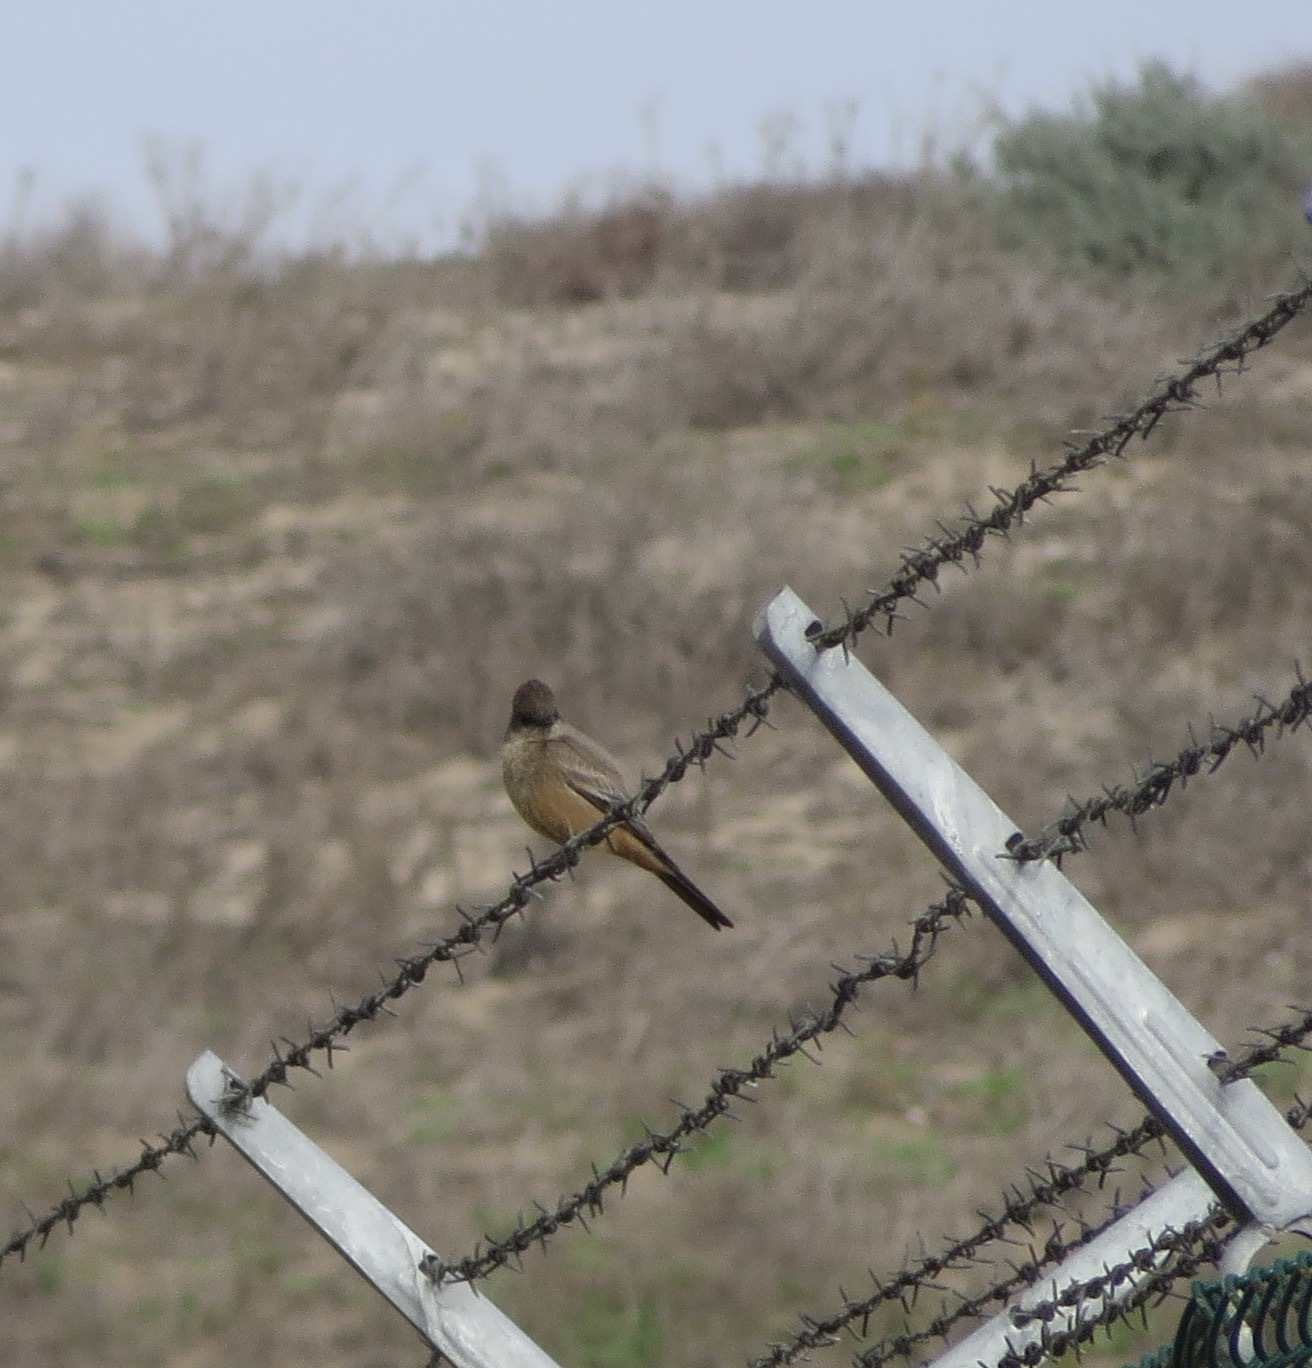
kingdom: Animalia
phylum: Chordata
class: Aves
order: Passeriformes
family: Tyrannidae
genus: Sayornis
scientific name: Sayornis saya
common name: Say's phoebe
